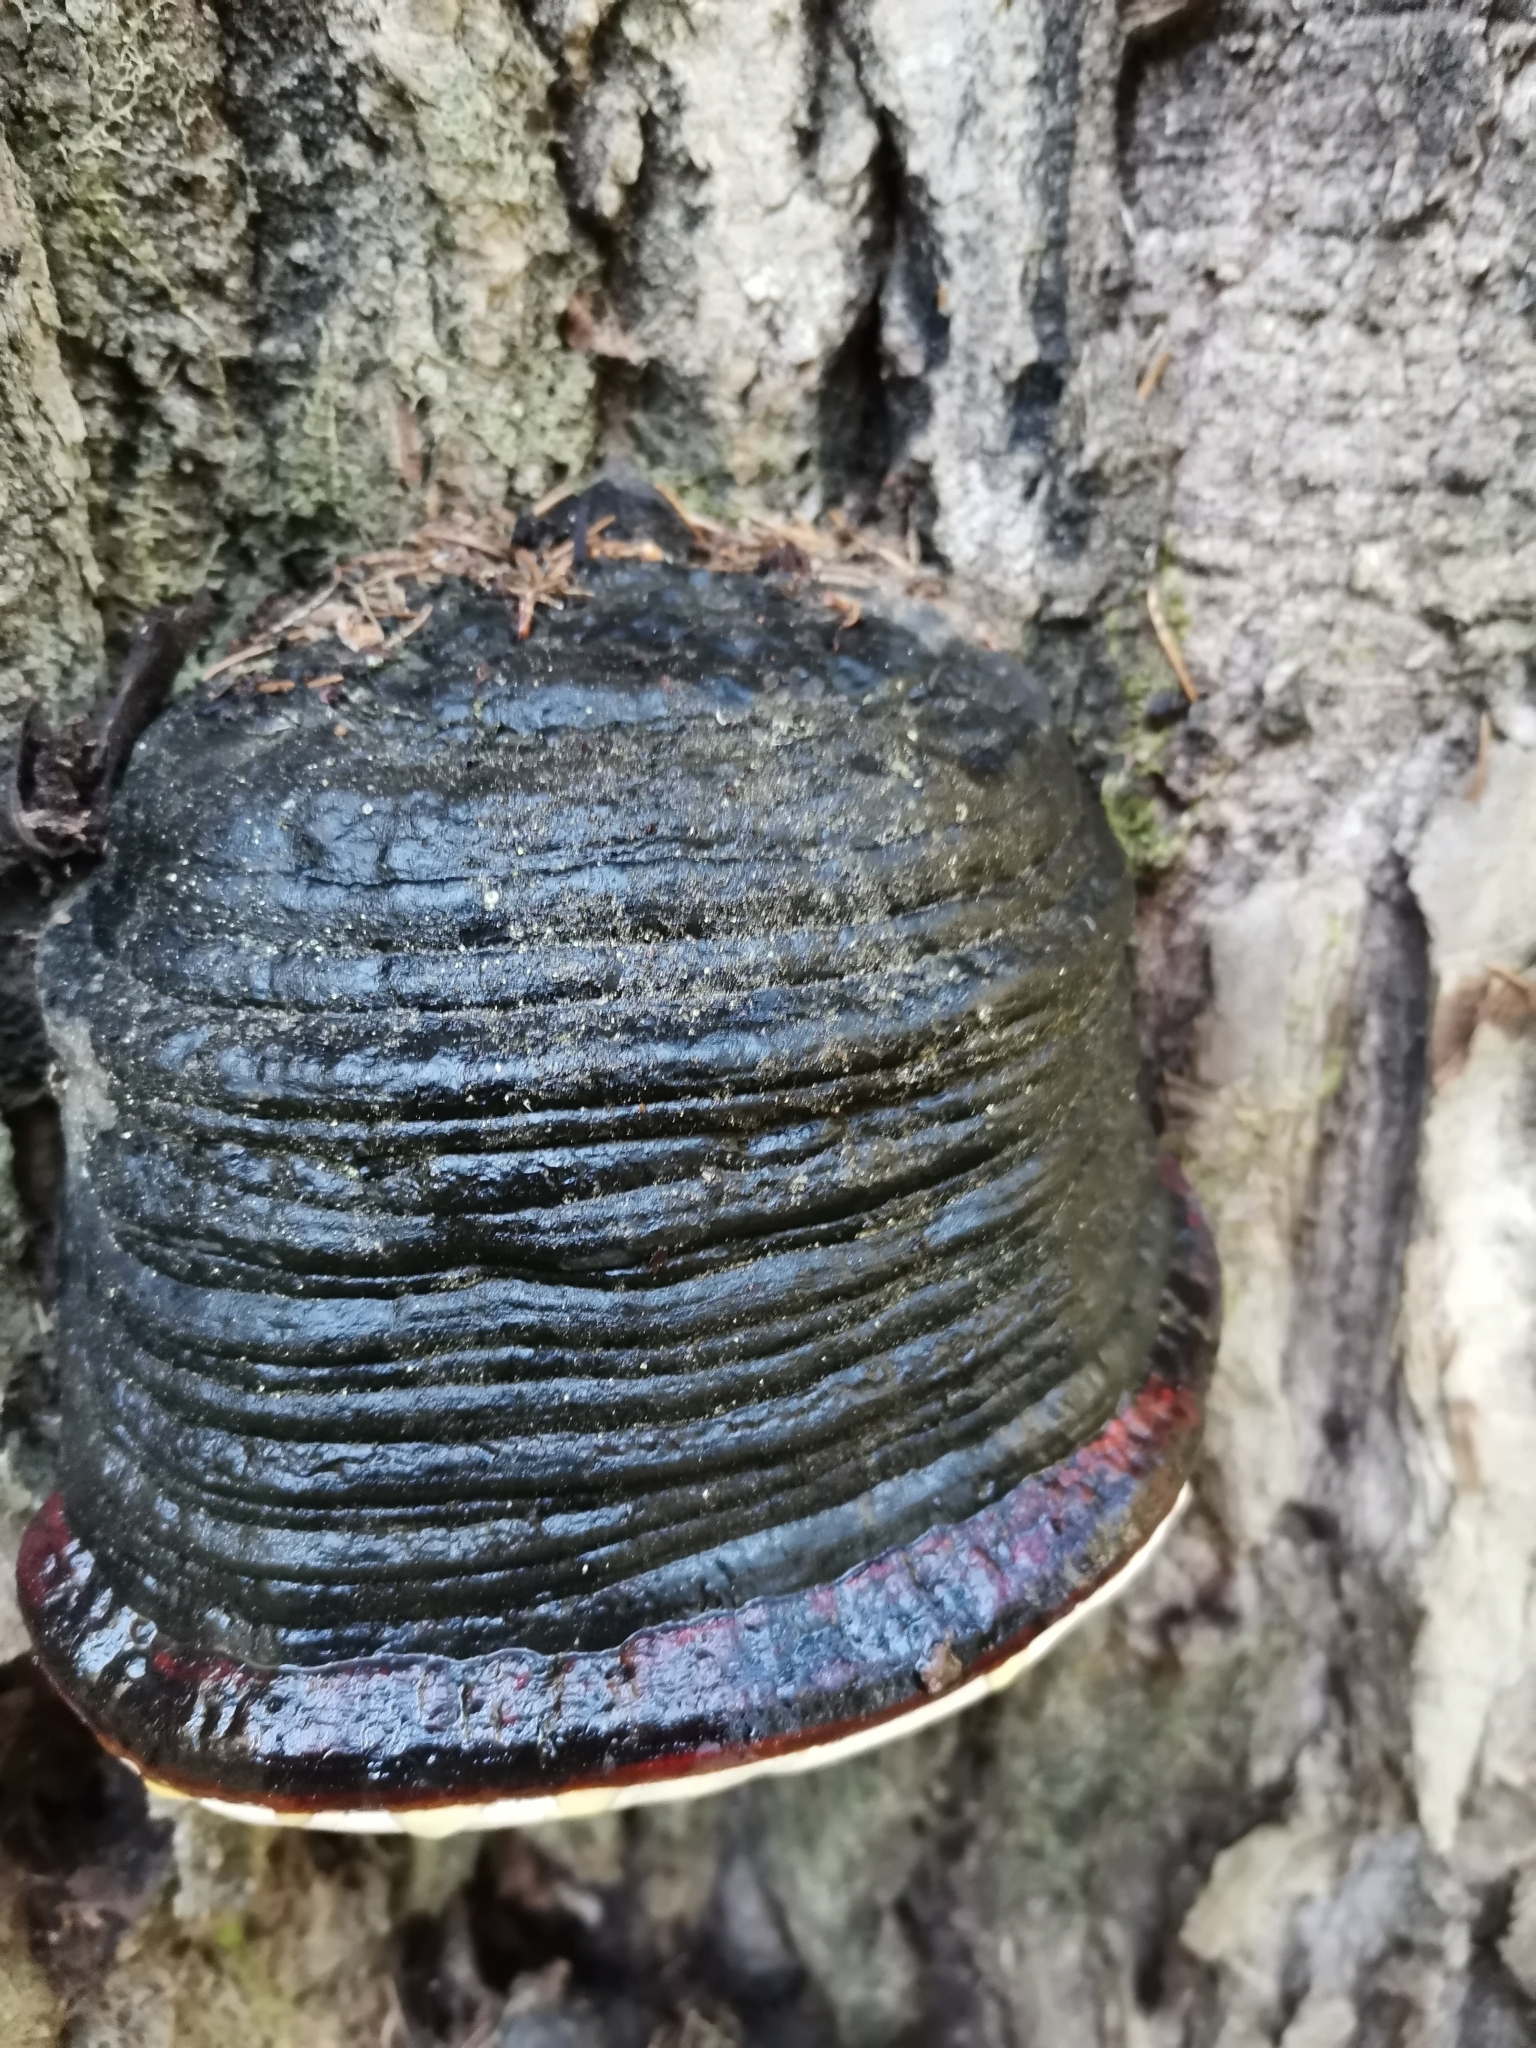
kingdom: Fungi
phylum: Basidiomycota
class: Agaricomycetes
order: Hymenochaetales
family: Hymenochaetaceae
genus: Phellinus
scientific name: Phellinus populicola
